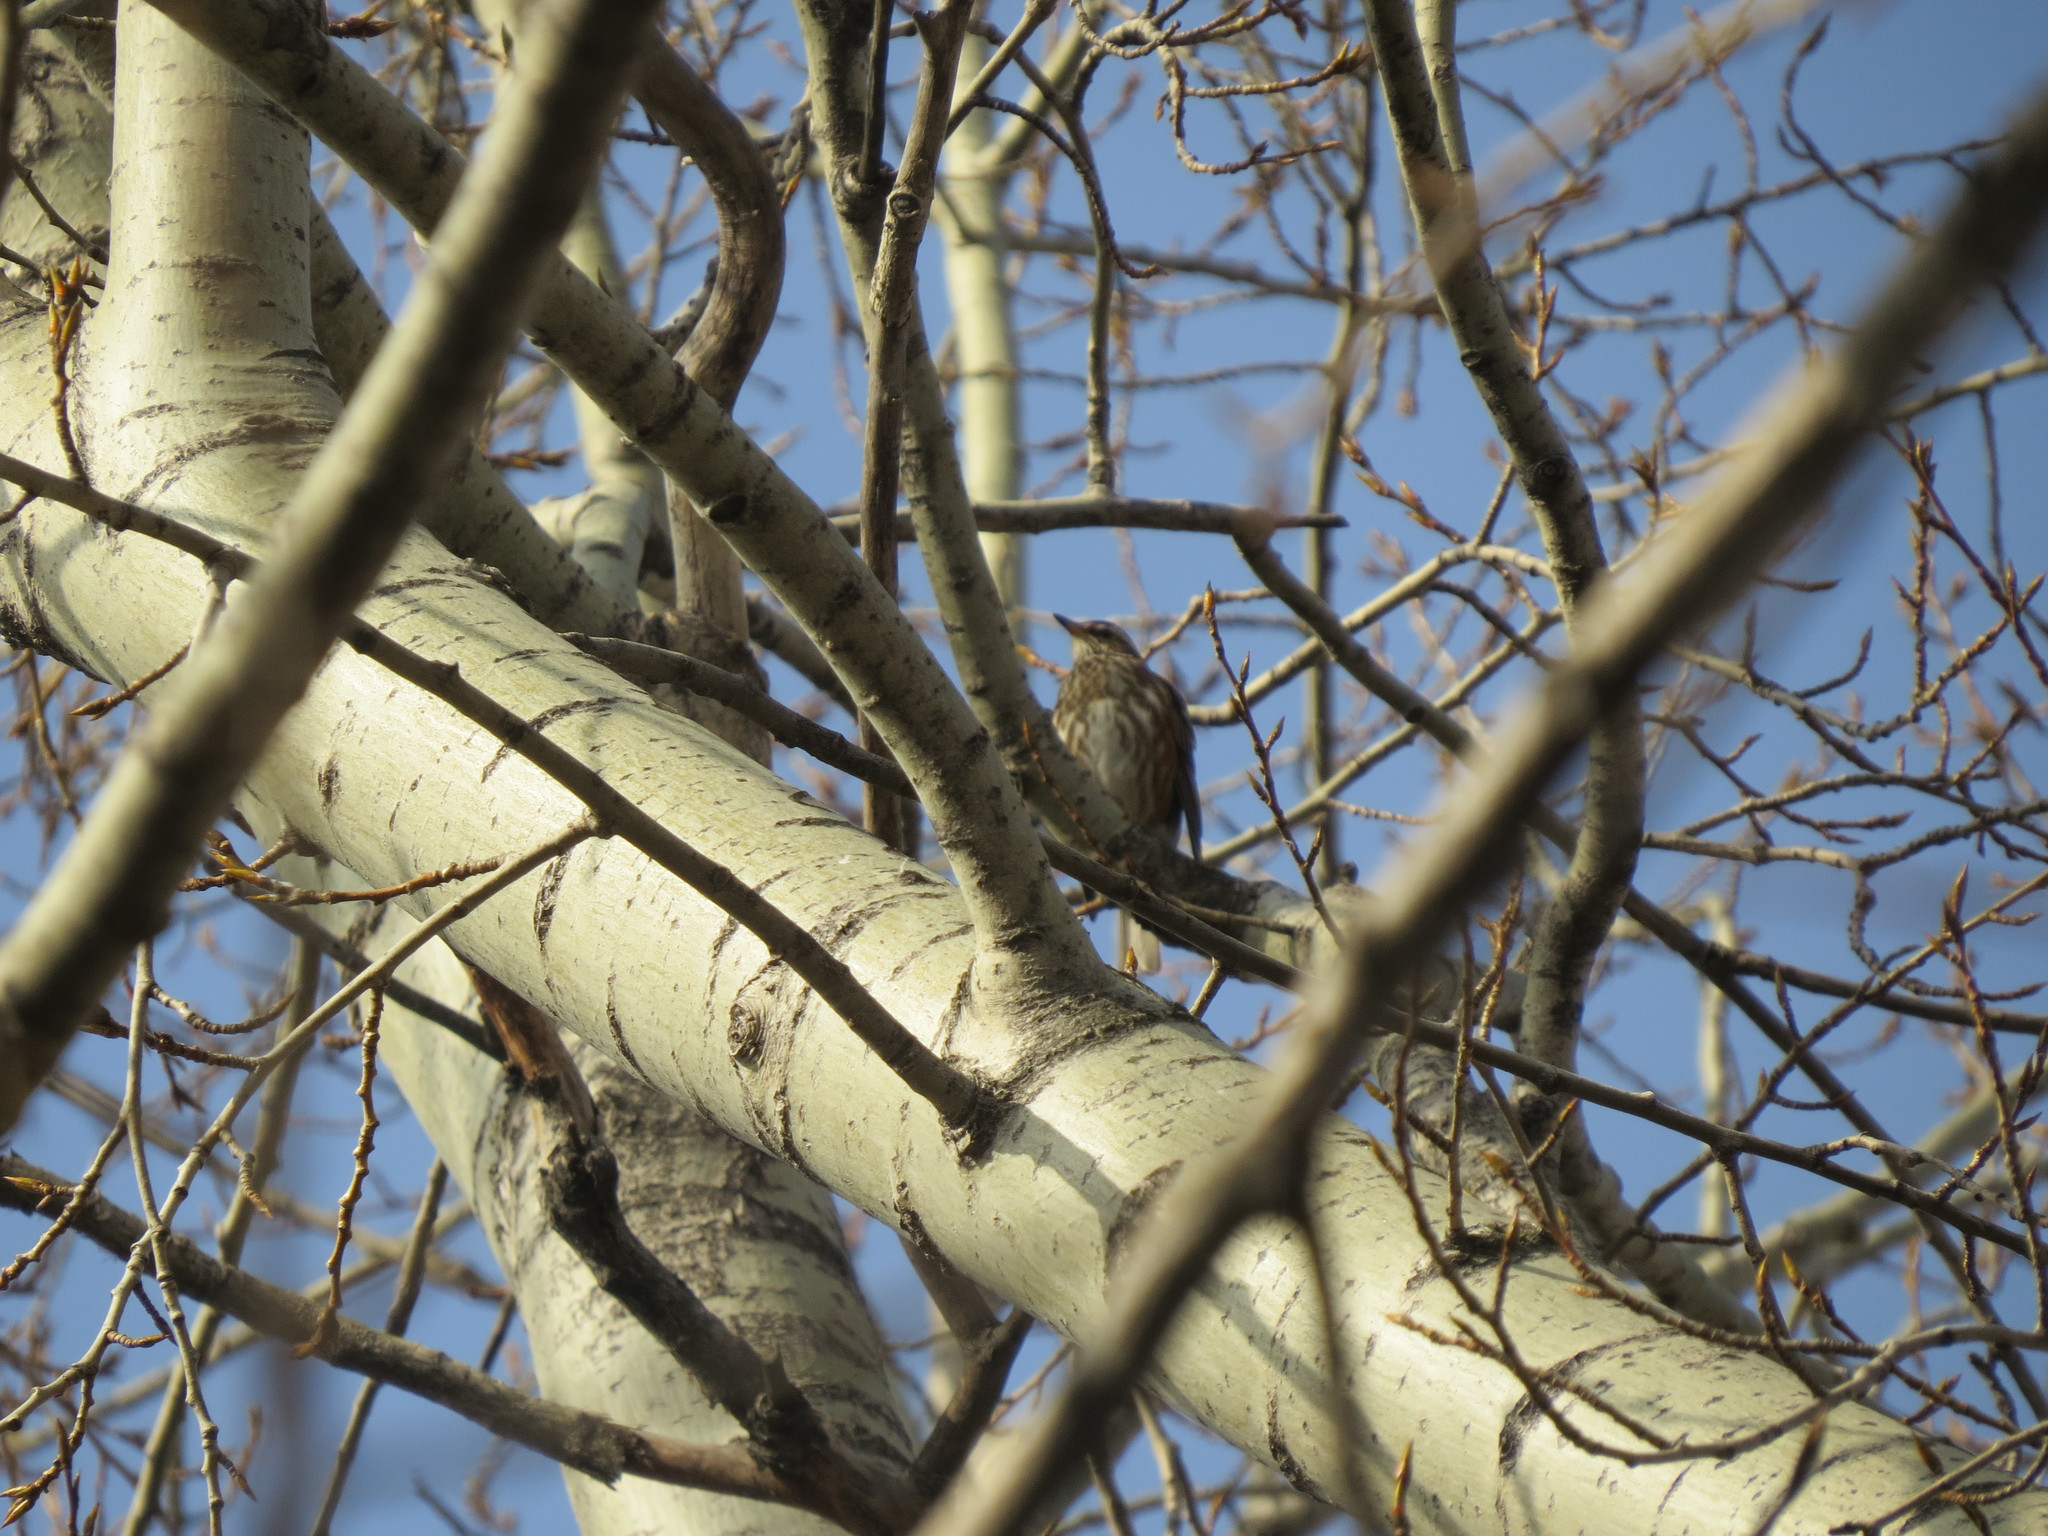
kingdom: Animalia
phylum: Chordata
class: Aves
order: Passeriformes
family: Turdidae
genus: Turdus
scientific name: Turdus iliacus
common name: Redwing
